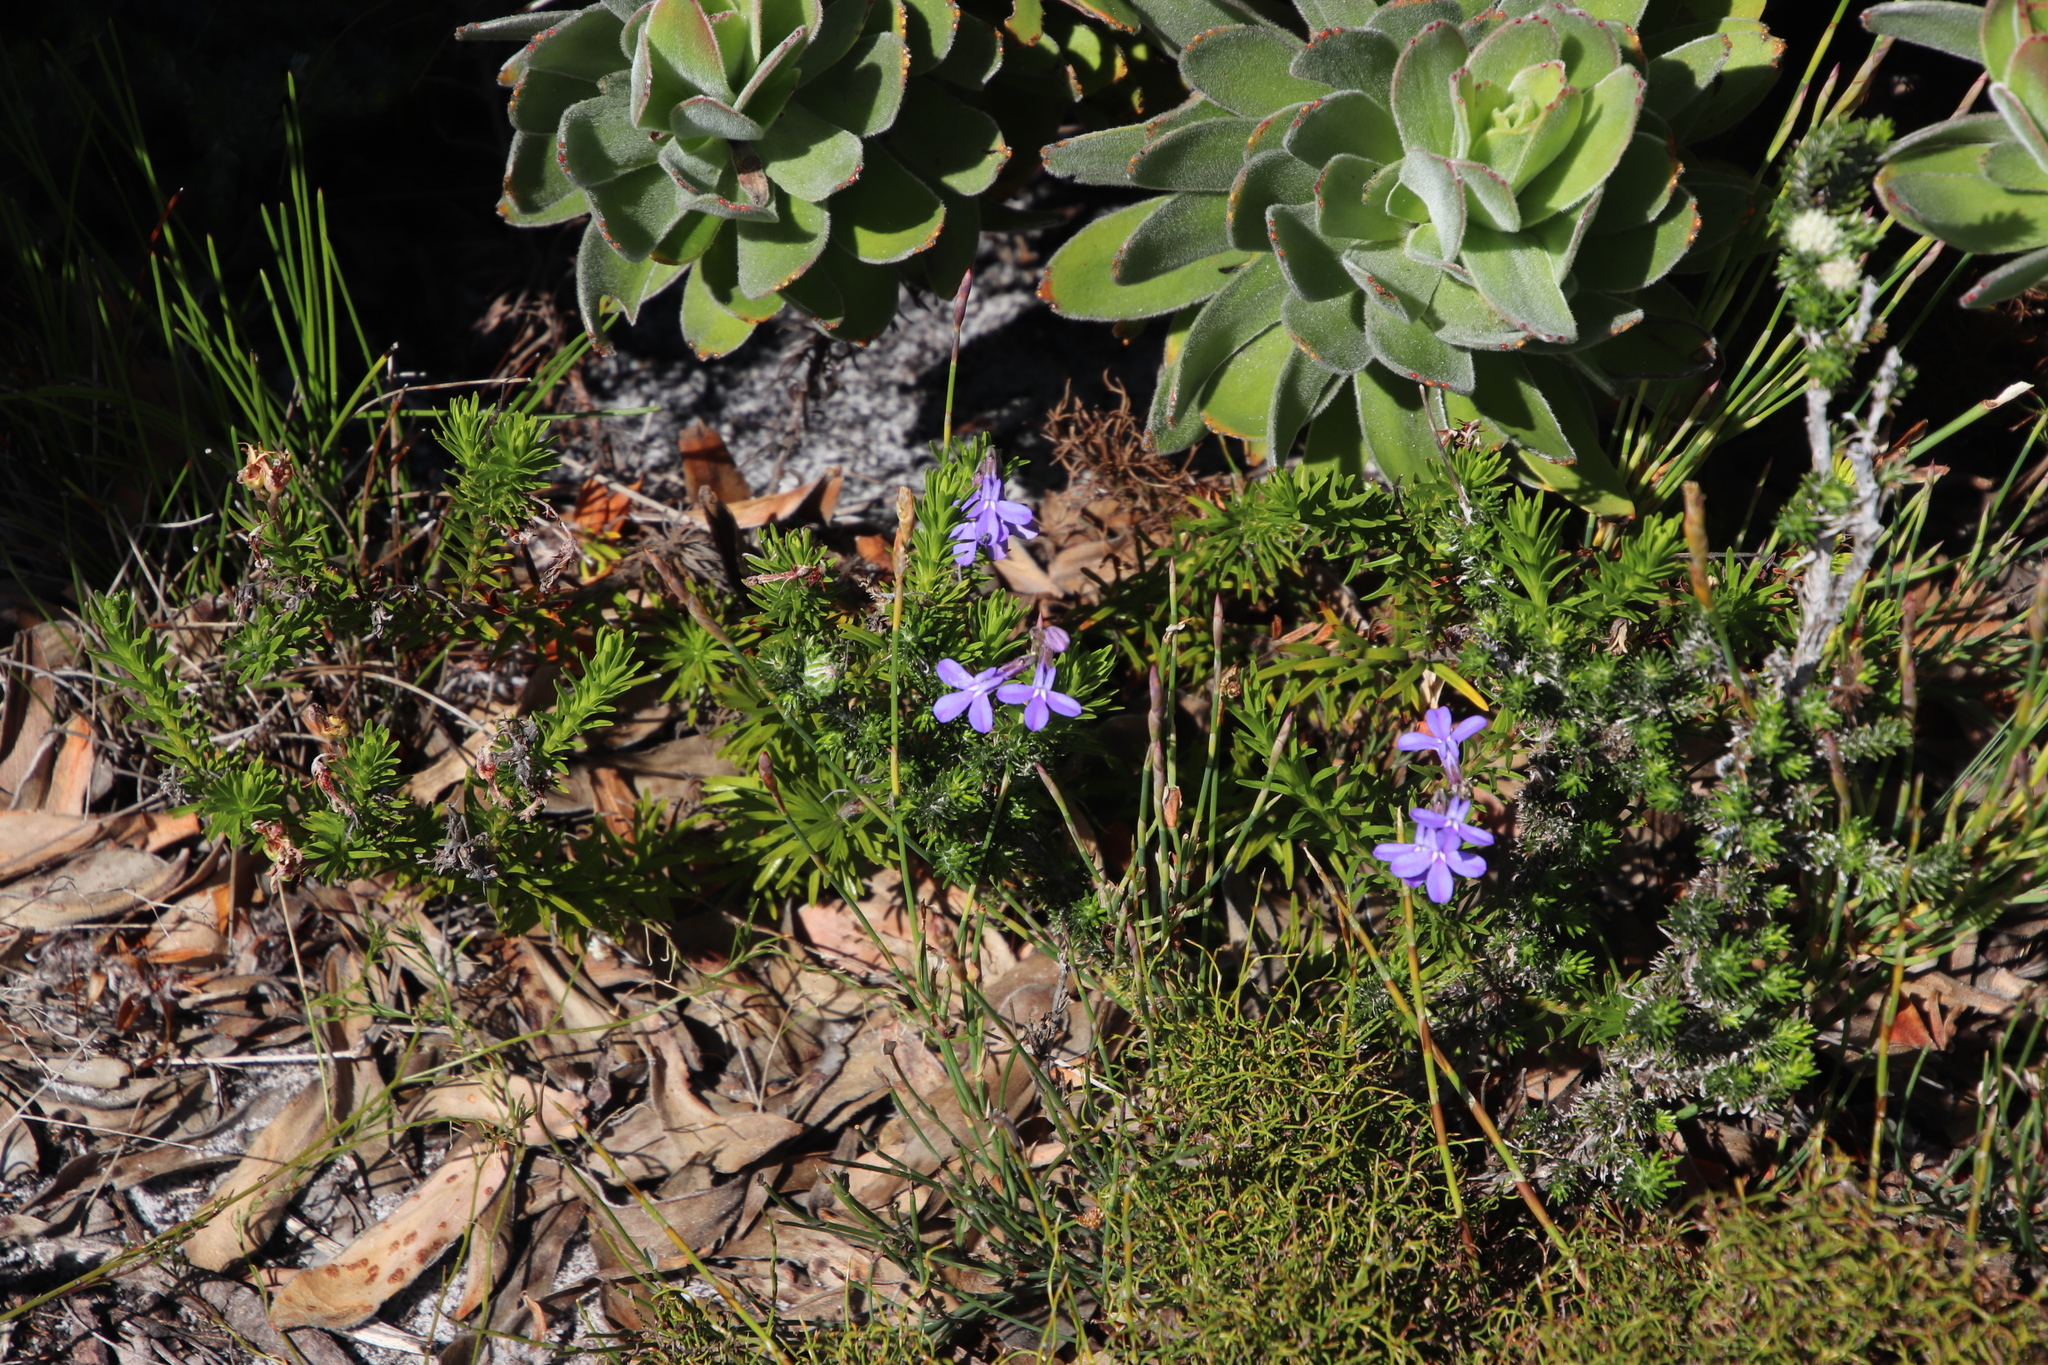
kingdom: Plantae
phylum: Tracheophyta
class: Magnoliopsida
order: Asterales
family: Campanulaceae
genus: Lobelia
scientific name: Lobelia pinifolia
